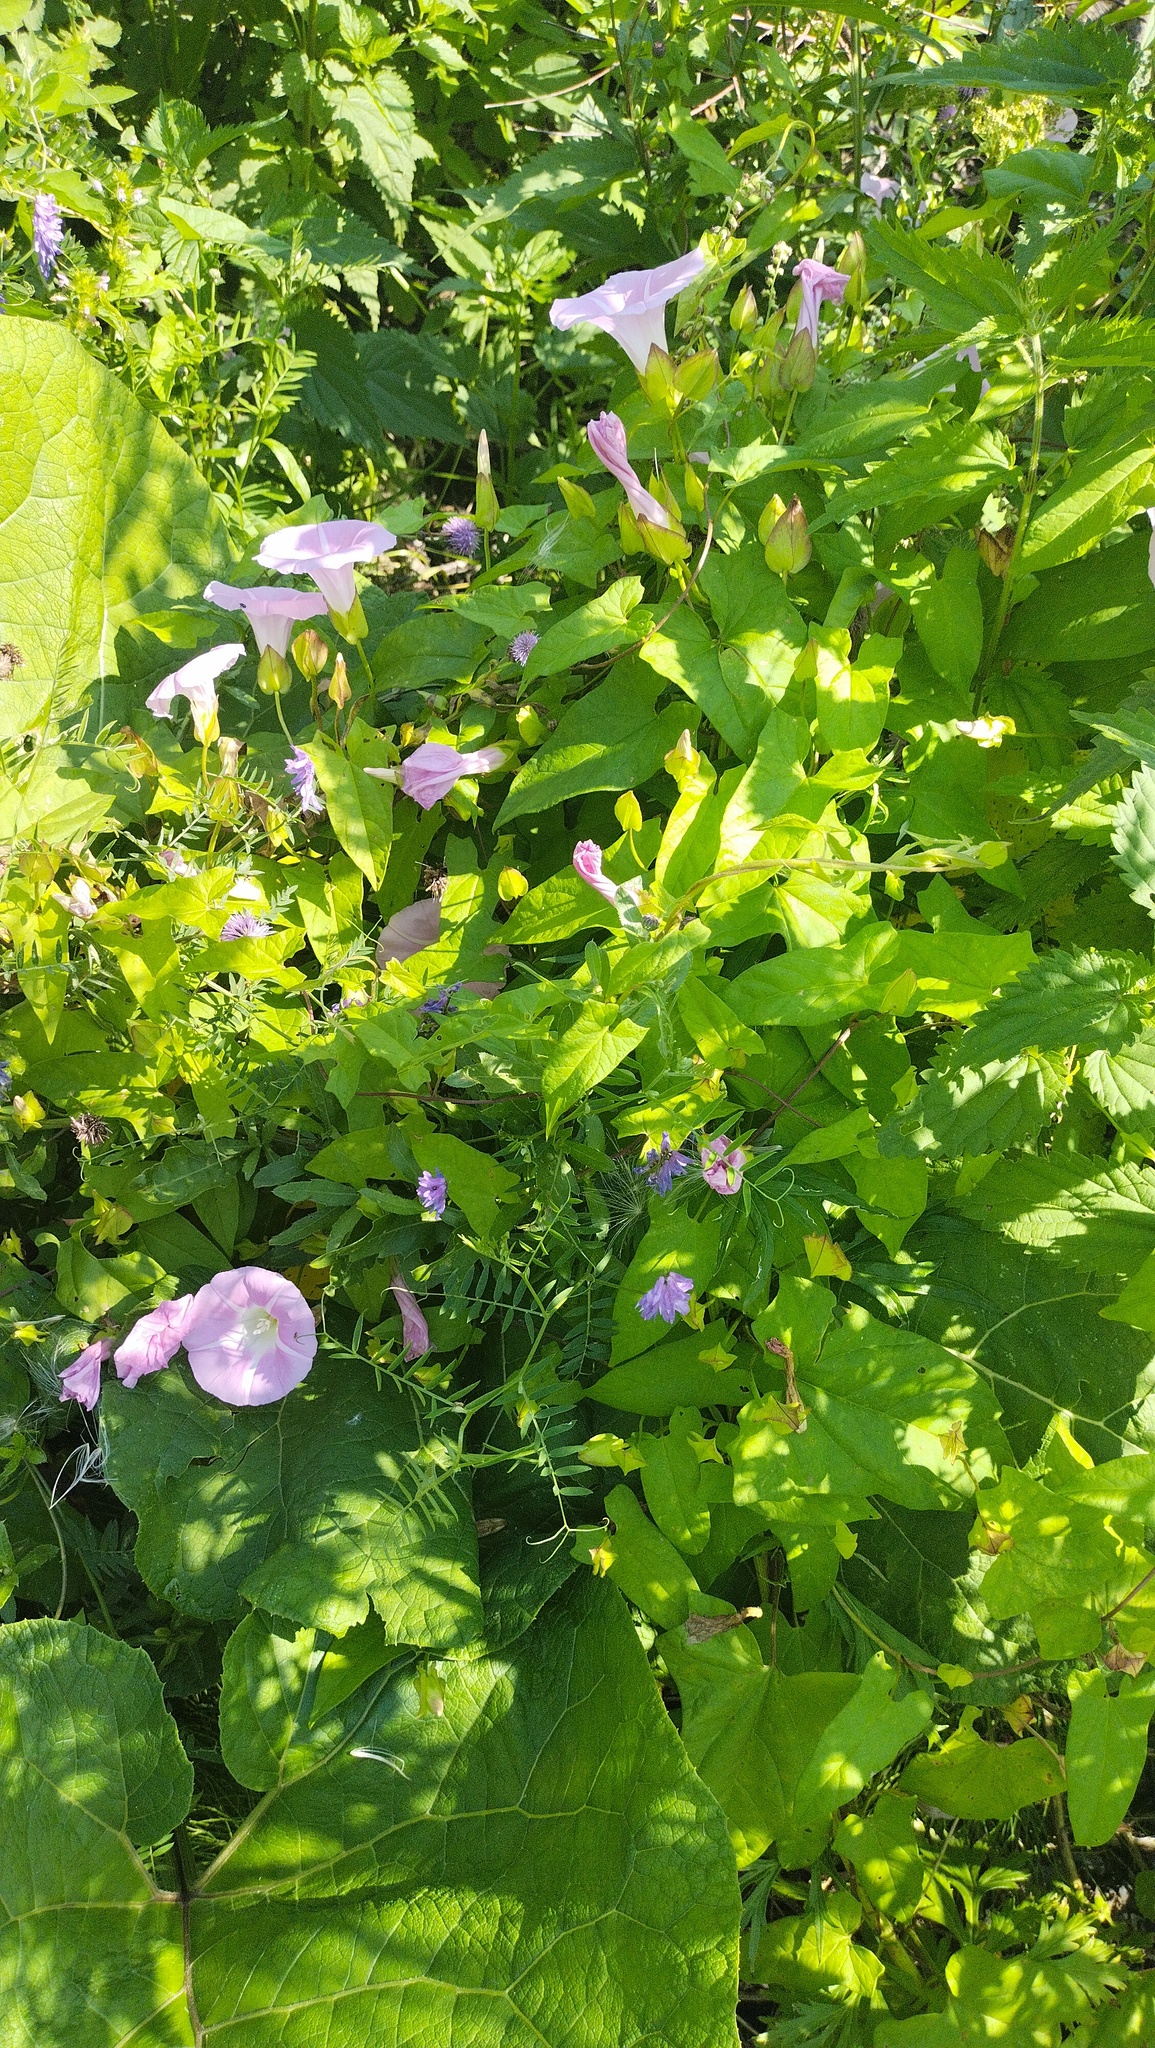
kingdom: Plantae
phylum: Tracheophyta
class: Magnoliopsida
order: Solanales
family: Convolvulaceae
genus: Calystegia
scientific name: Calystegia sepium
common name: Hedge bindweed
